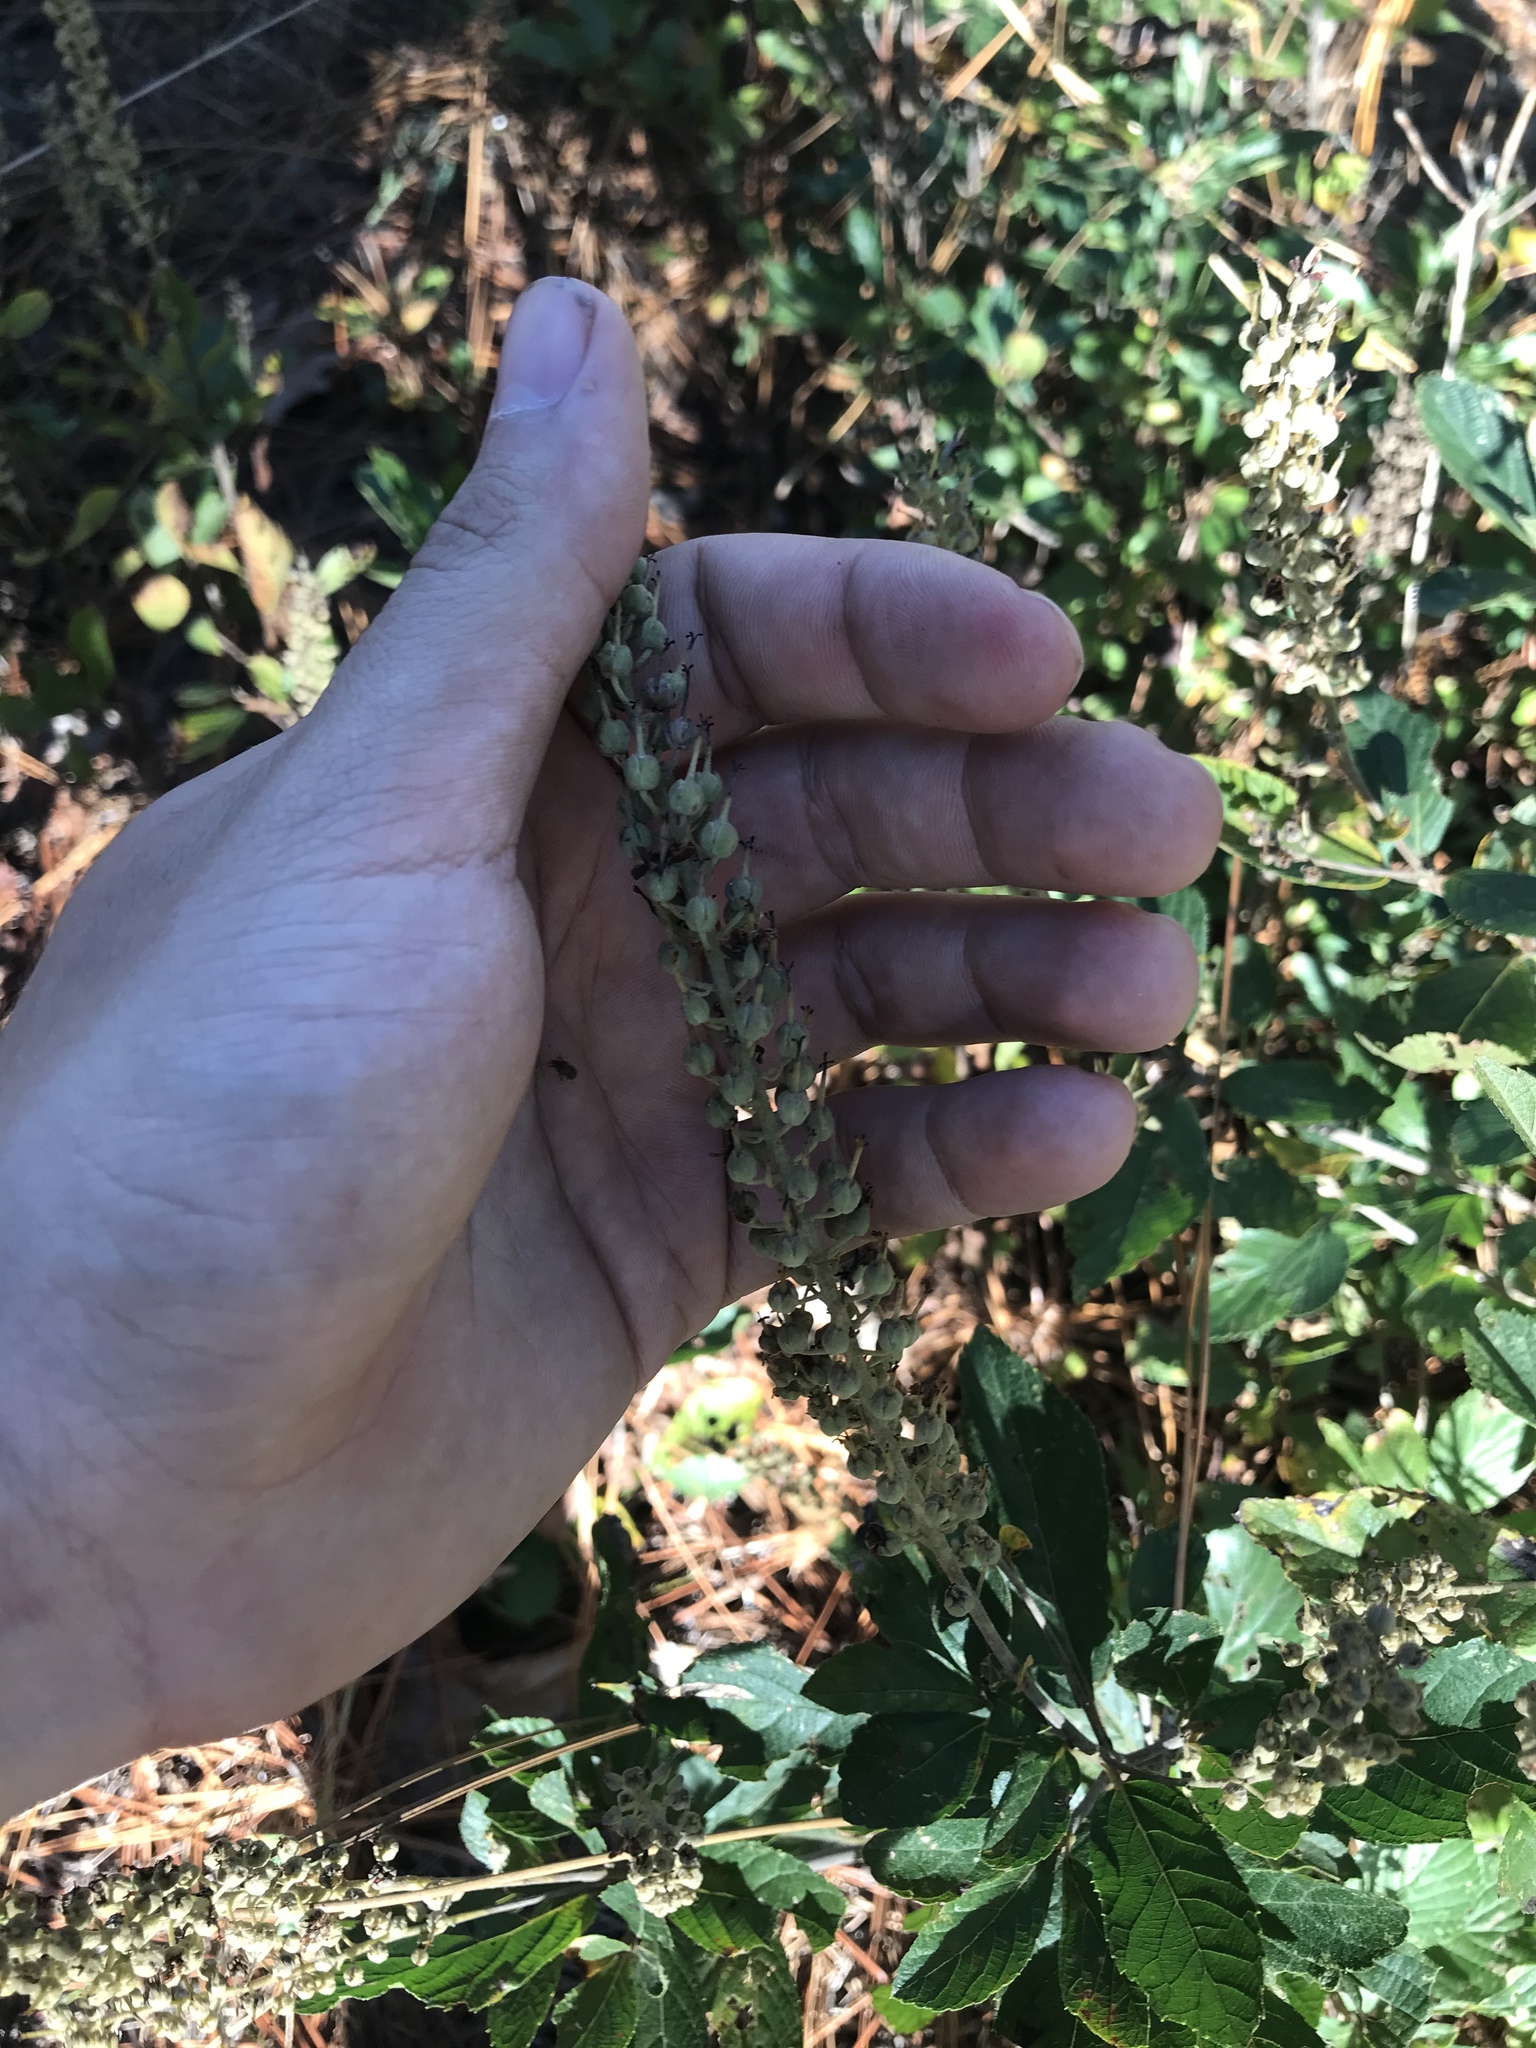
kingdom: Plantae
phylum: Tracheophyta
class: Magnoliopsida
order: Ericales
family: Clethraceae
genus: Clethra
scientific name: Clethra alnifolia
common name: Sweet pepperbush
